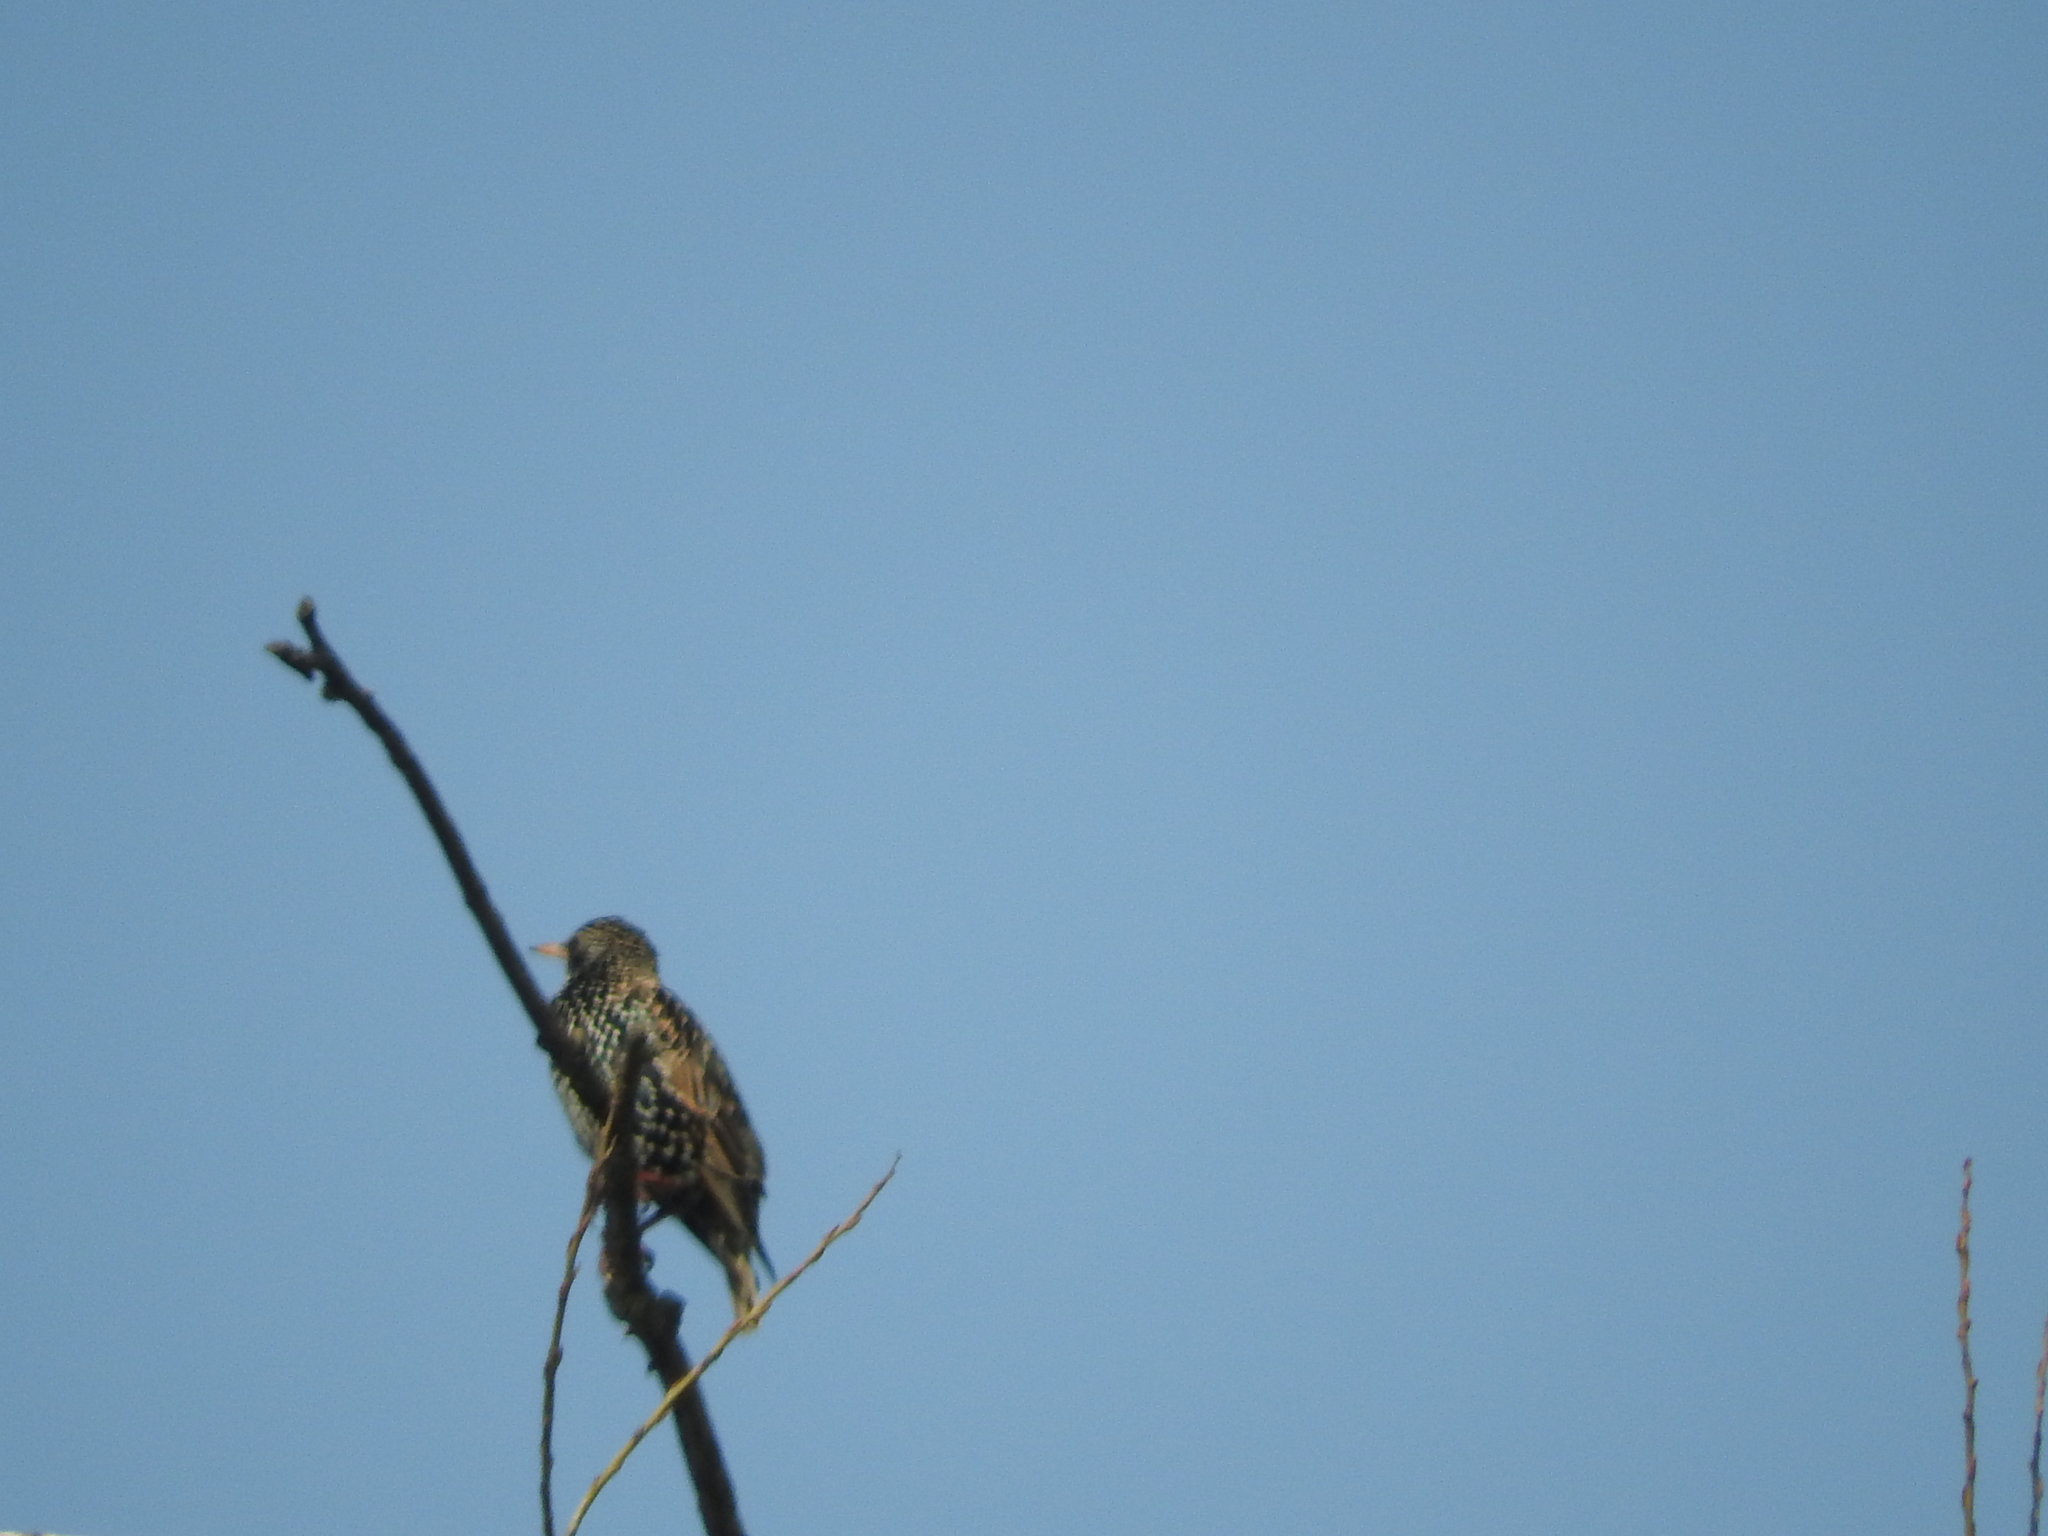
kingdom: Animalia
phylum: Chordata
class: Aves
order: Passeriformes
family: Sturnidae
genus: Sturnus
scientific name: Sturnus vulgaris
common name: Common starling
